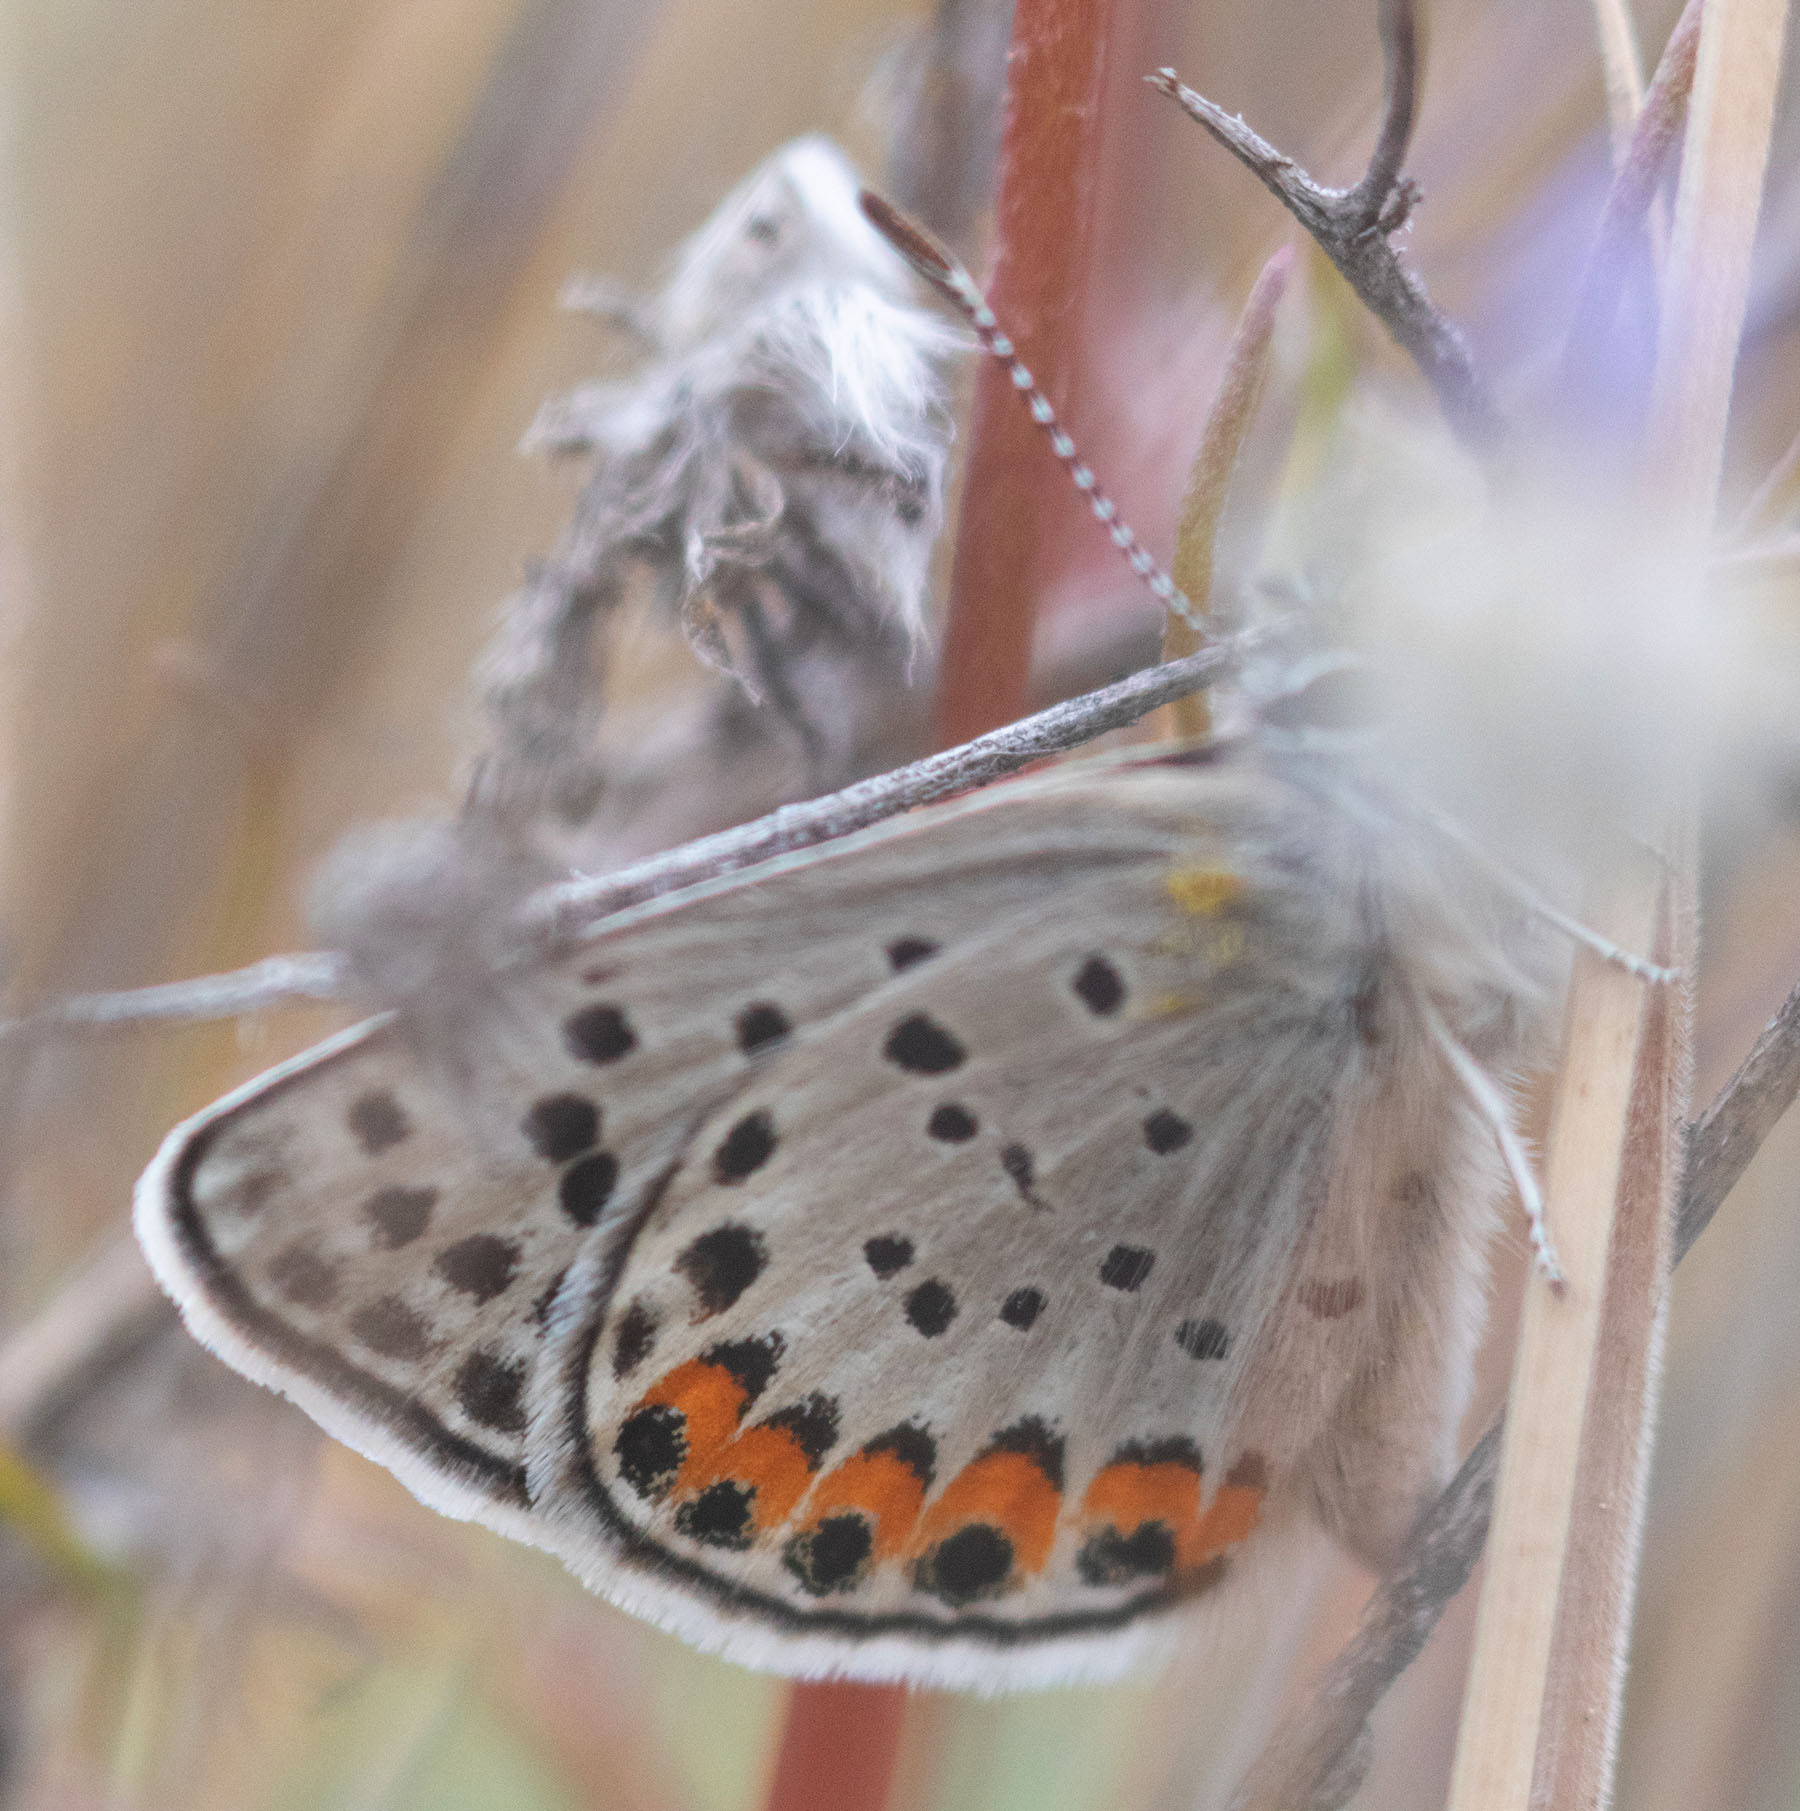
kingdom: Animalia
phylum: Arthropoda
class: Insecta
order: Lepidoptera
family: Lycaenidae
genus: Icaricia
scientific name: Icaricia acmon
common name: Acmon blue
